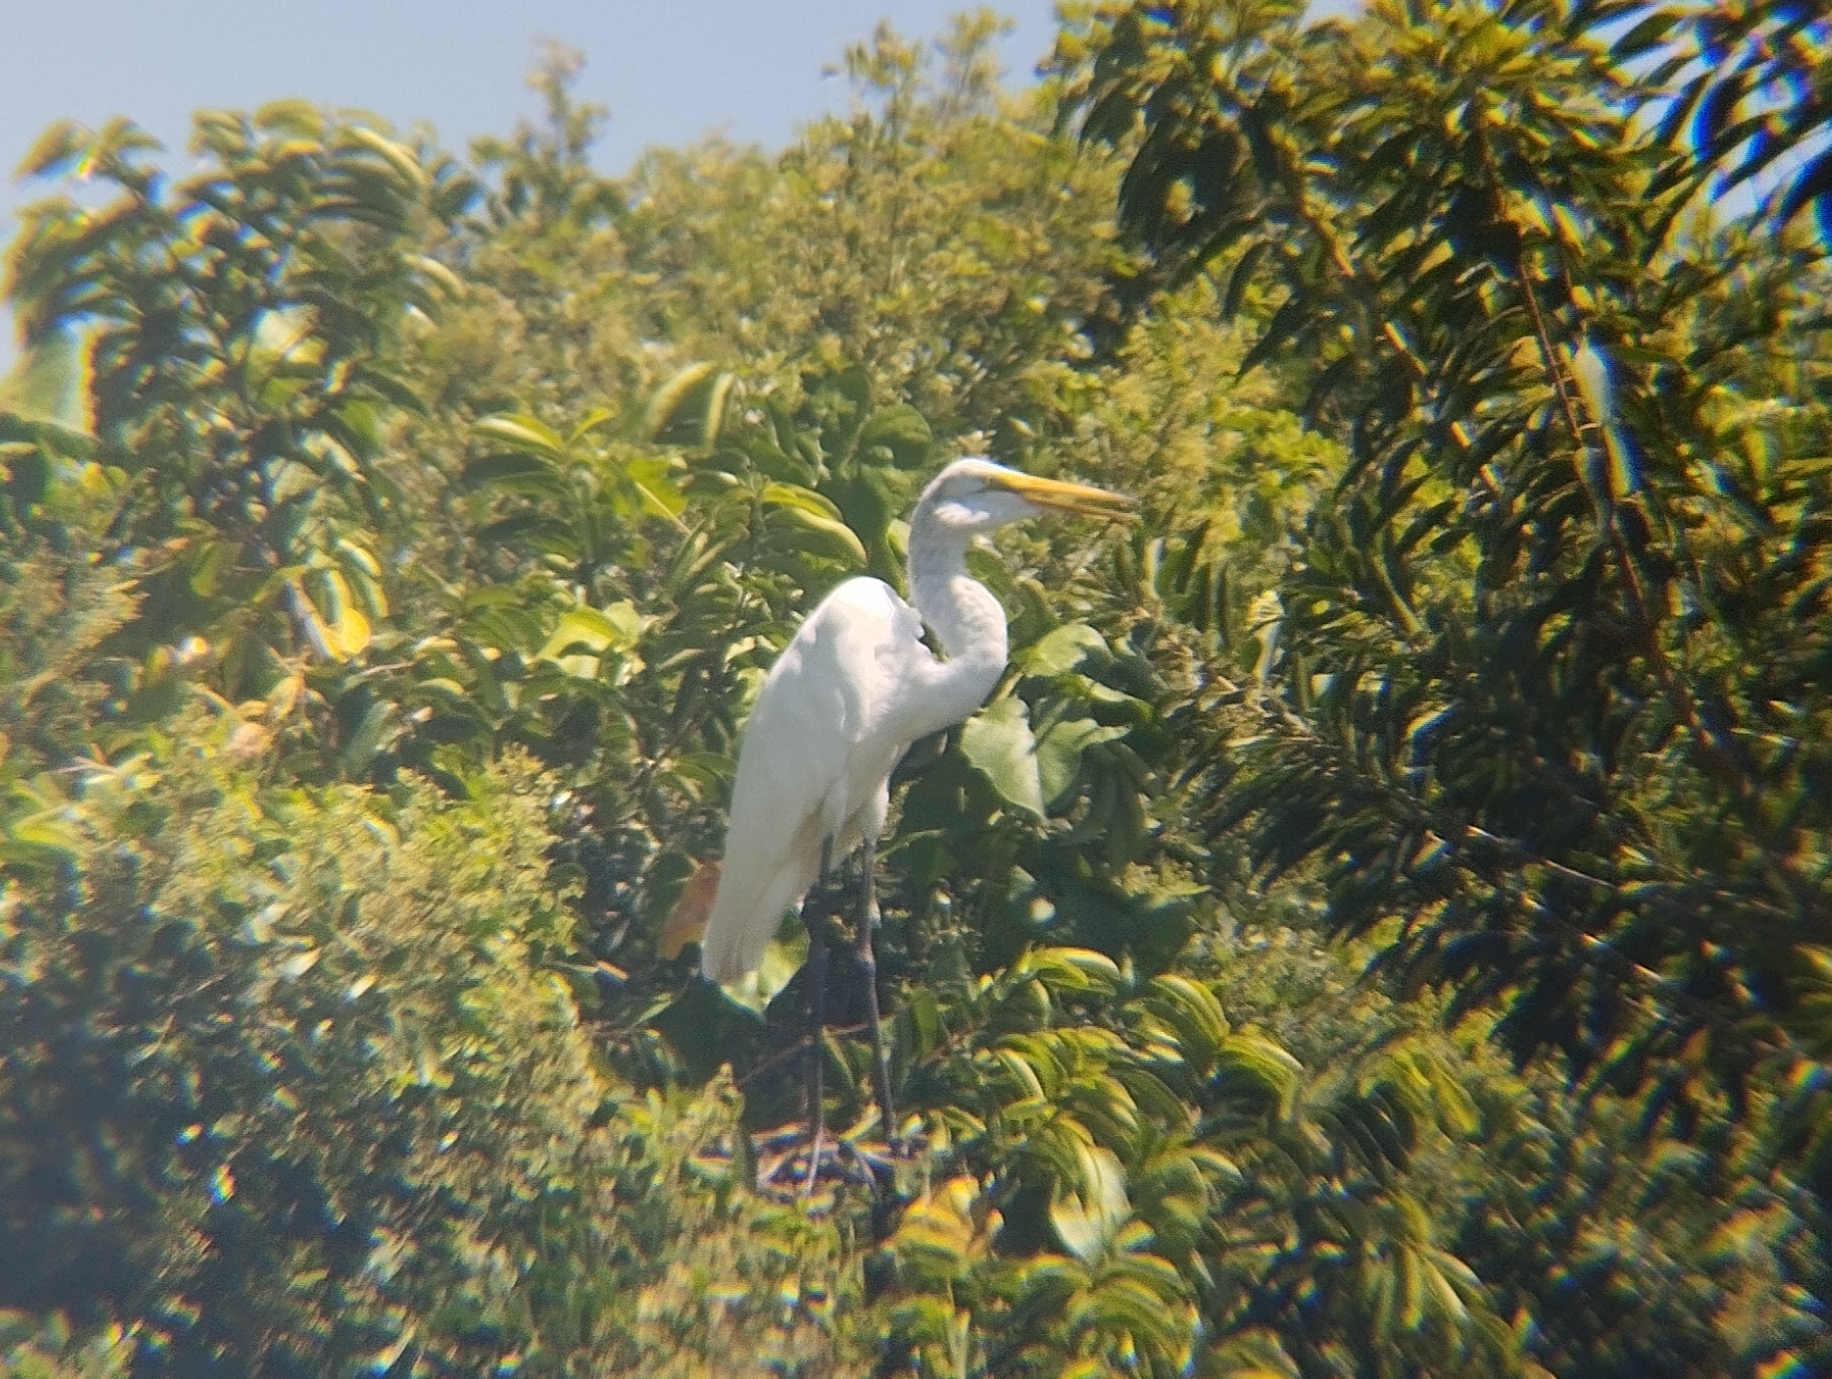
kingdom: Animalia
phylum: Chordata
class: Aves
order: Pelecaniformes
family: Ardeidae
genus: Ardea
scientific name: Ardea alba
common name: Great egret
